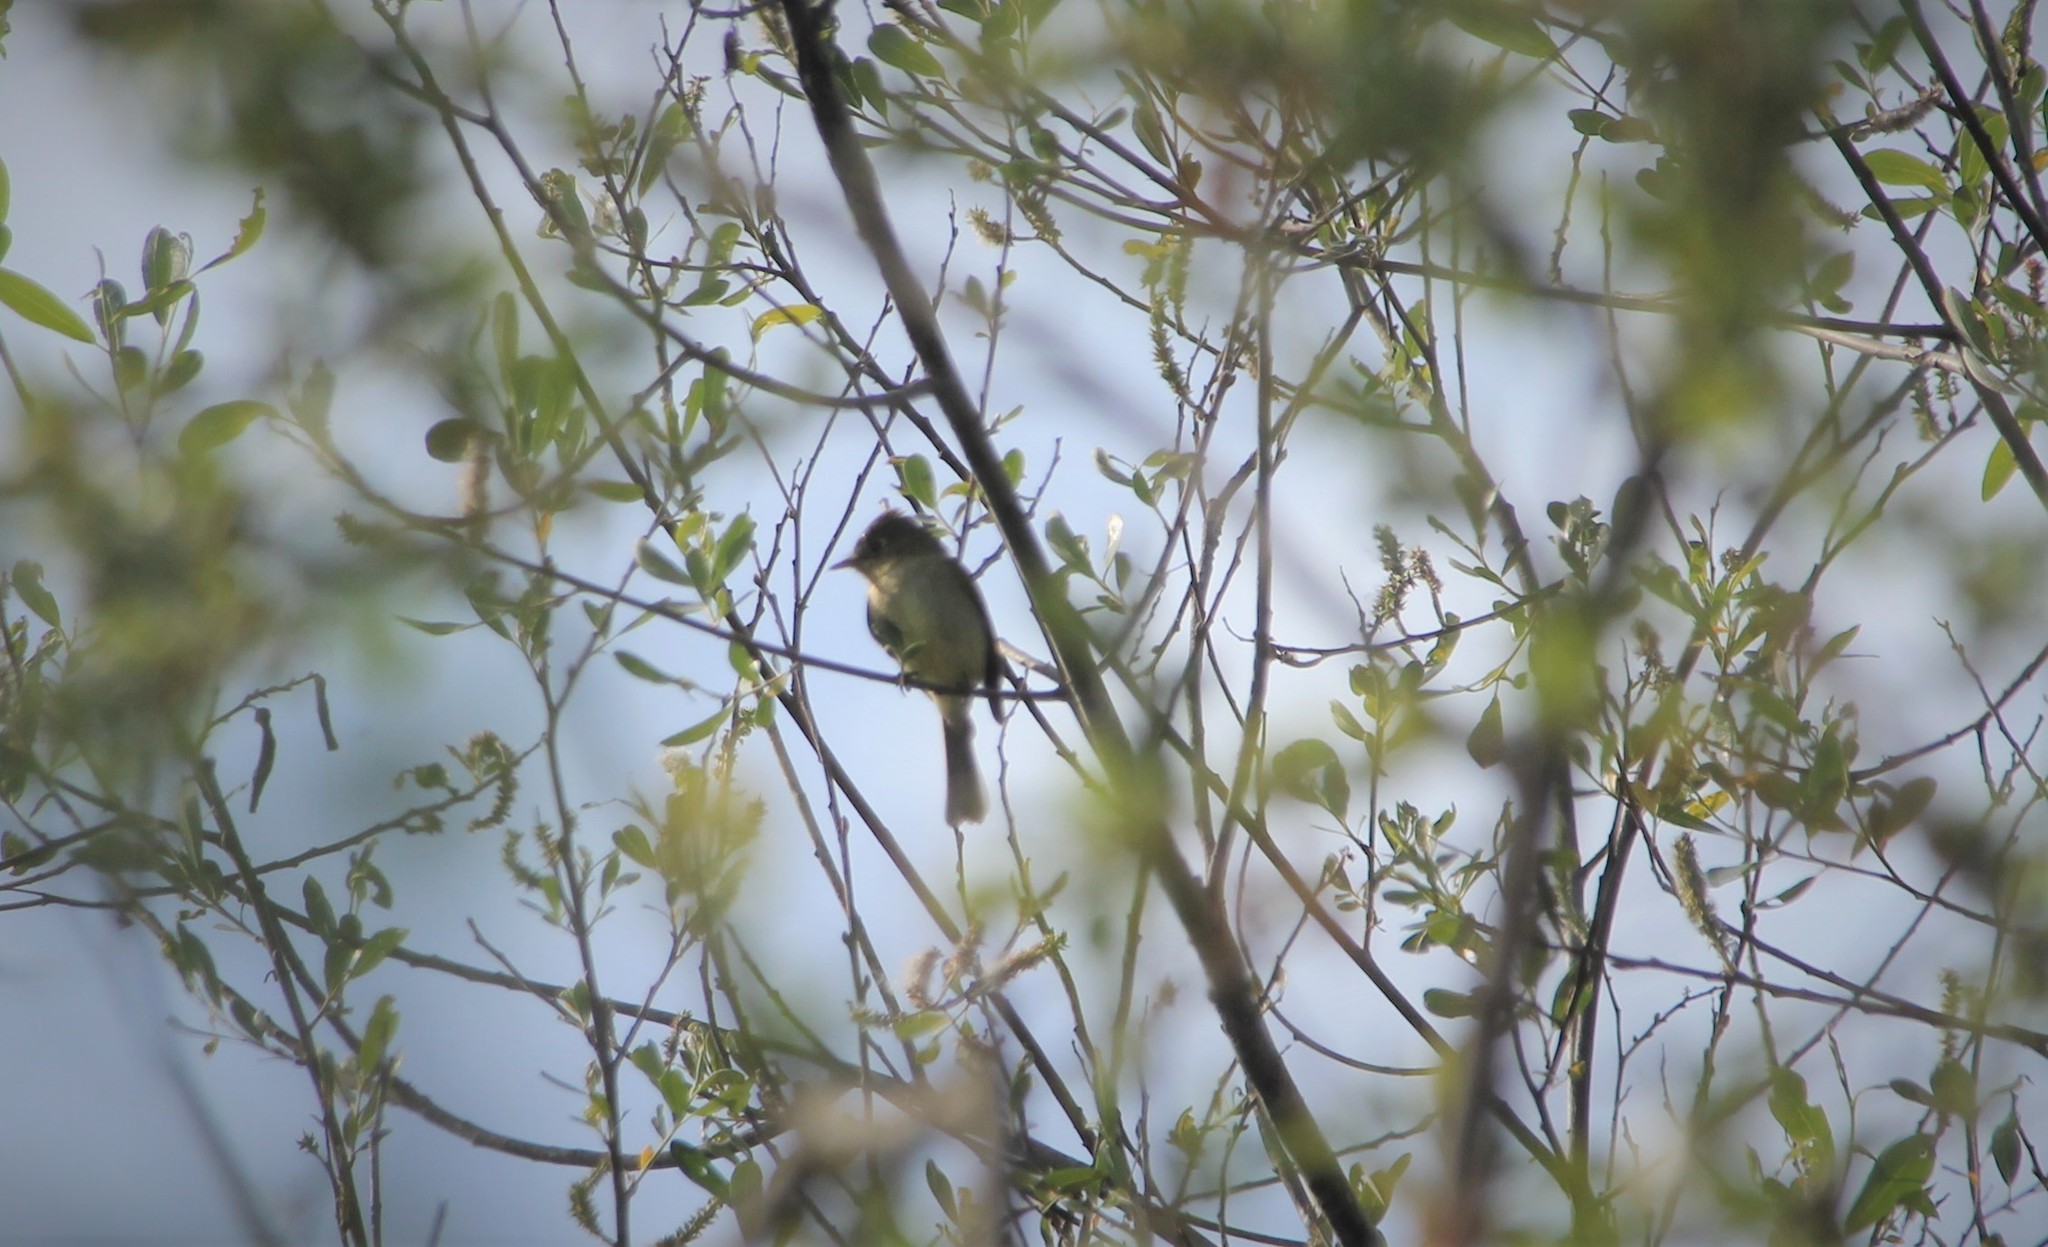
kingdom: Animalia
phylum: Chordata
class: Aves
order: Passeriformes
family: Tyrannidae
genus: Empidonax
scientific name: Empidonax difficilis
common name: Pacific-slope flycatcher
